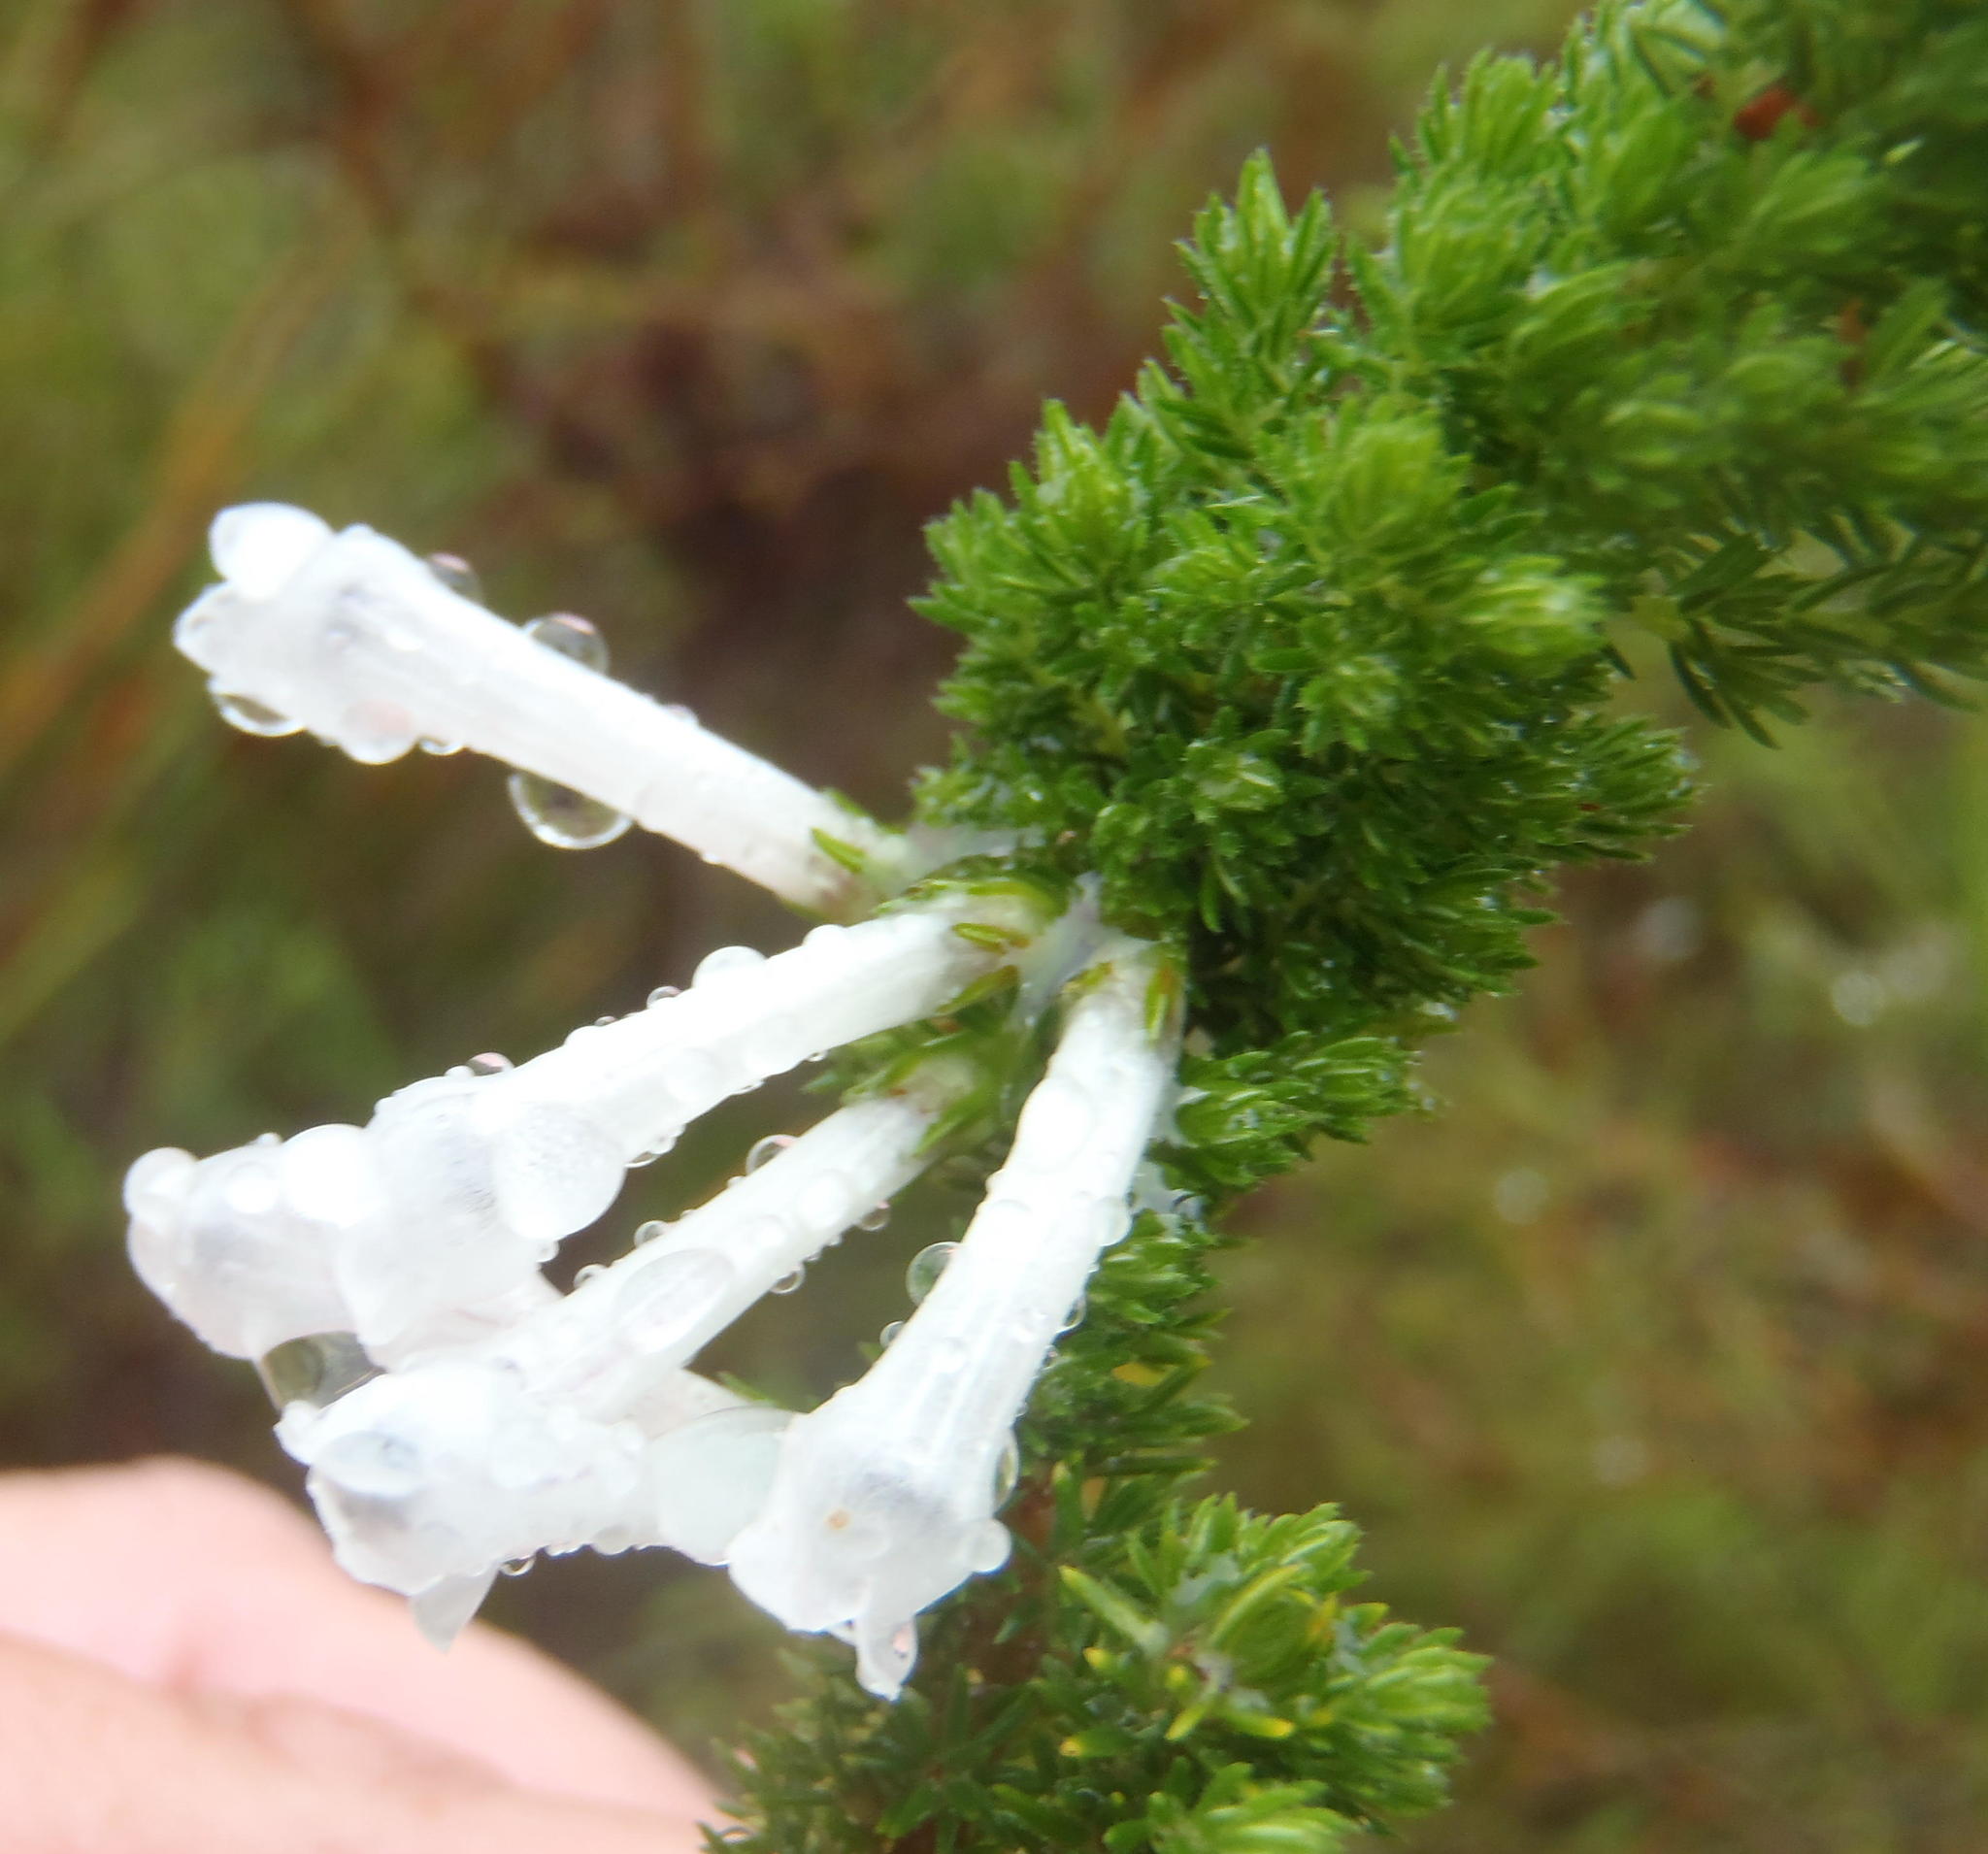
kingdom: Plantae
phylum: Tracheophyta
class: Magnoliopsida
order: Ericales
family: Ericaceae
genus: Erica
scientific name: Erica colorans
